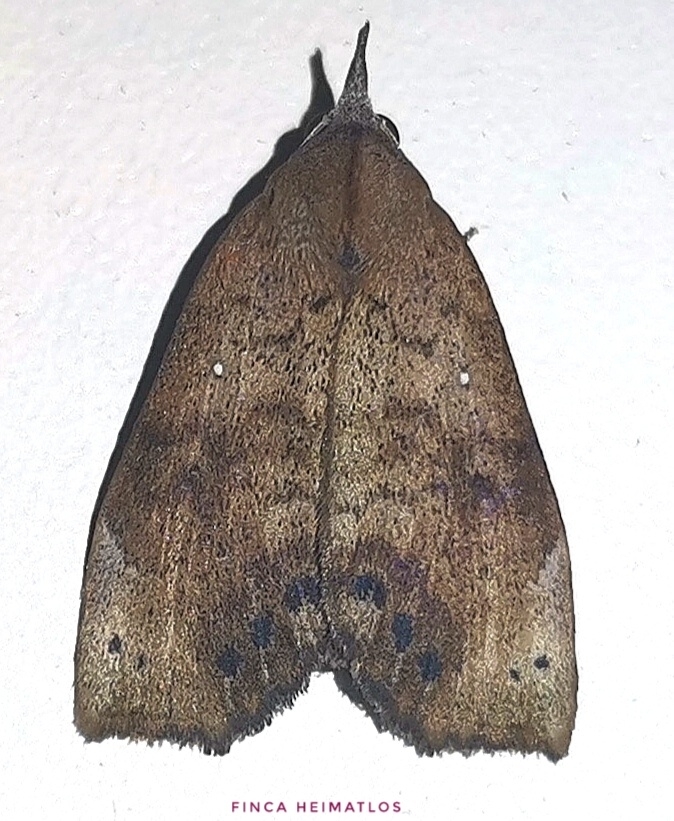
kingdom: Animalia
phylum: Arthropoda
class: Insecta
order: Lepidoptera
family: Erebidae
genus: Ipnista
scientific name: Ipnista marina
